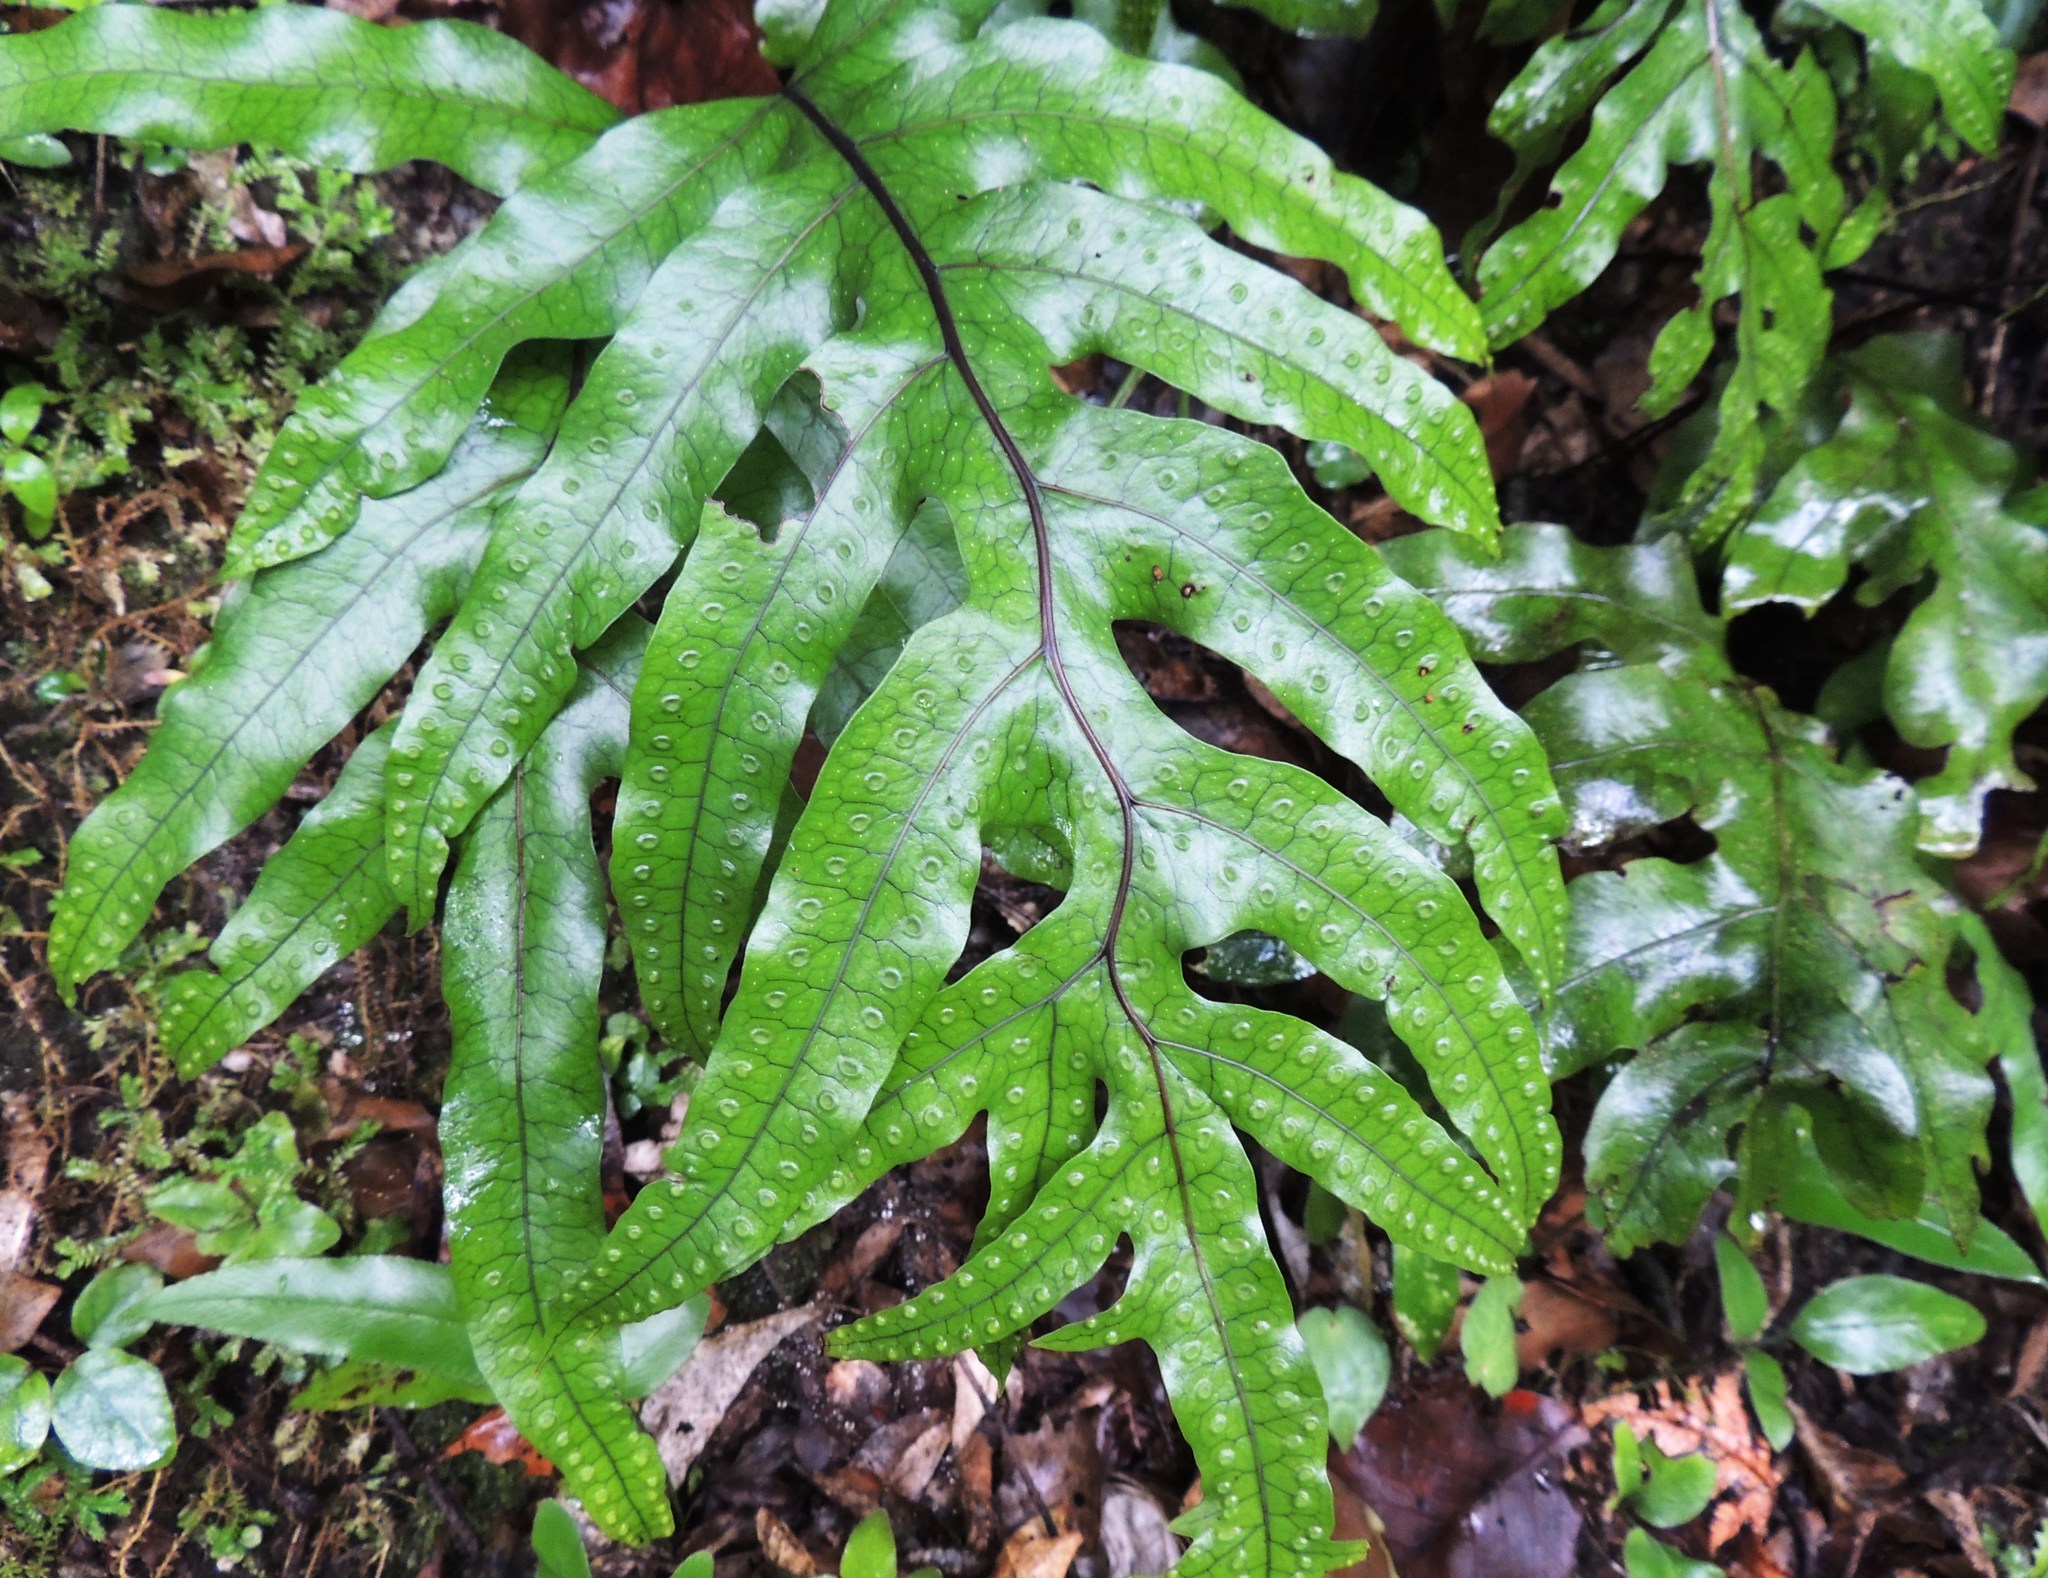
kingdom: Plantae
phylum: Tracheophyta
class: Polypodiopsida
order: Polypodiales
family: Polypodiaceae
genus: Lecanopteris
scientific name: Lecanopteris pustulata
